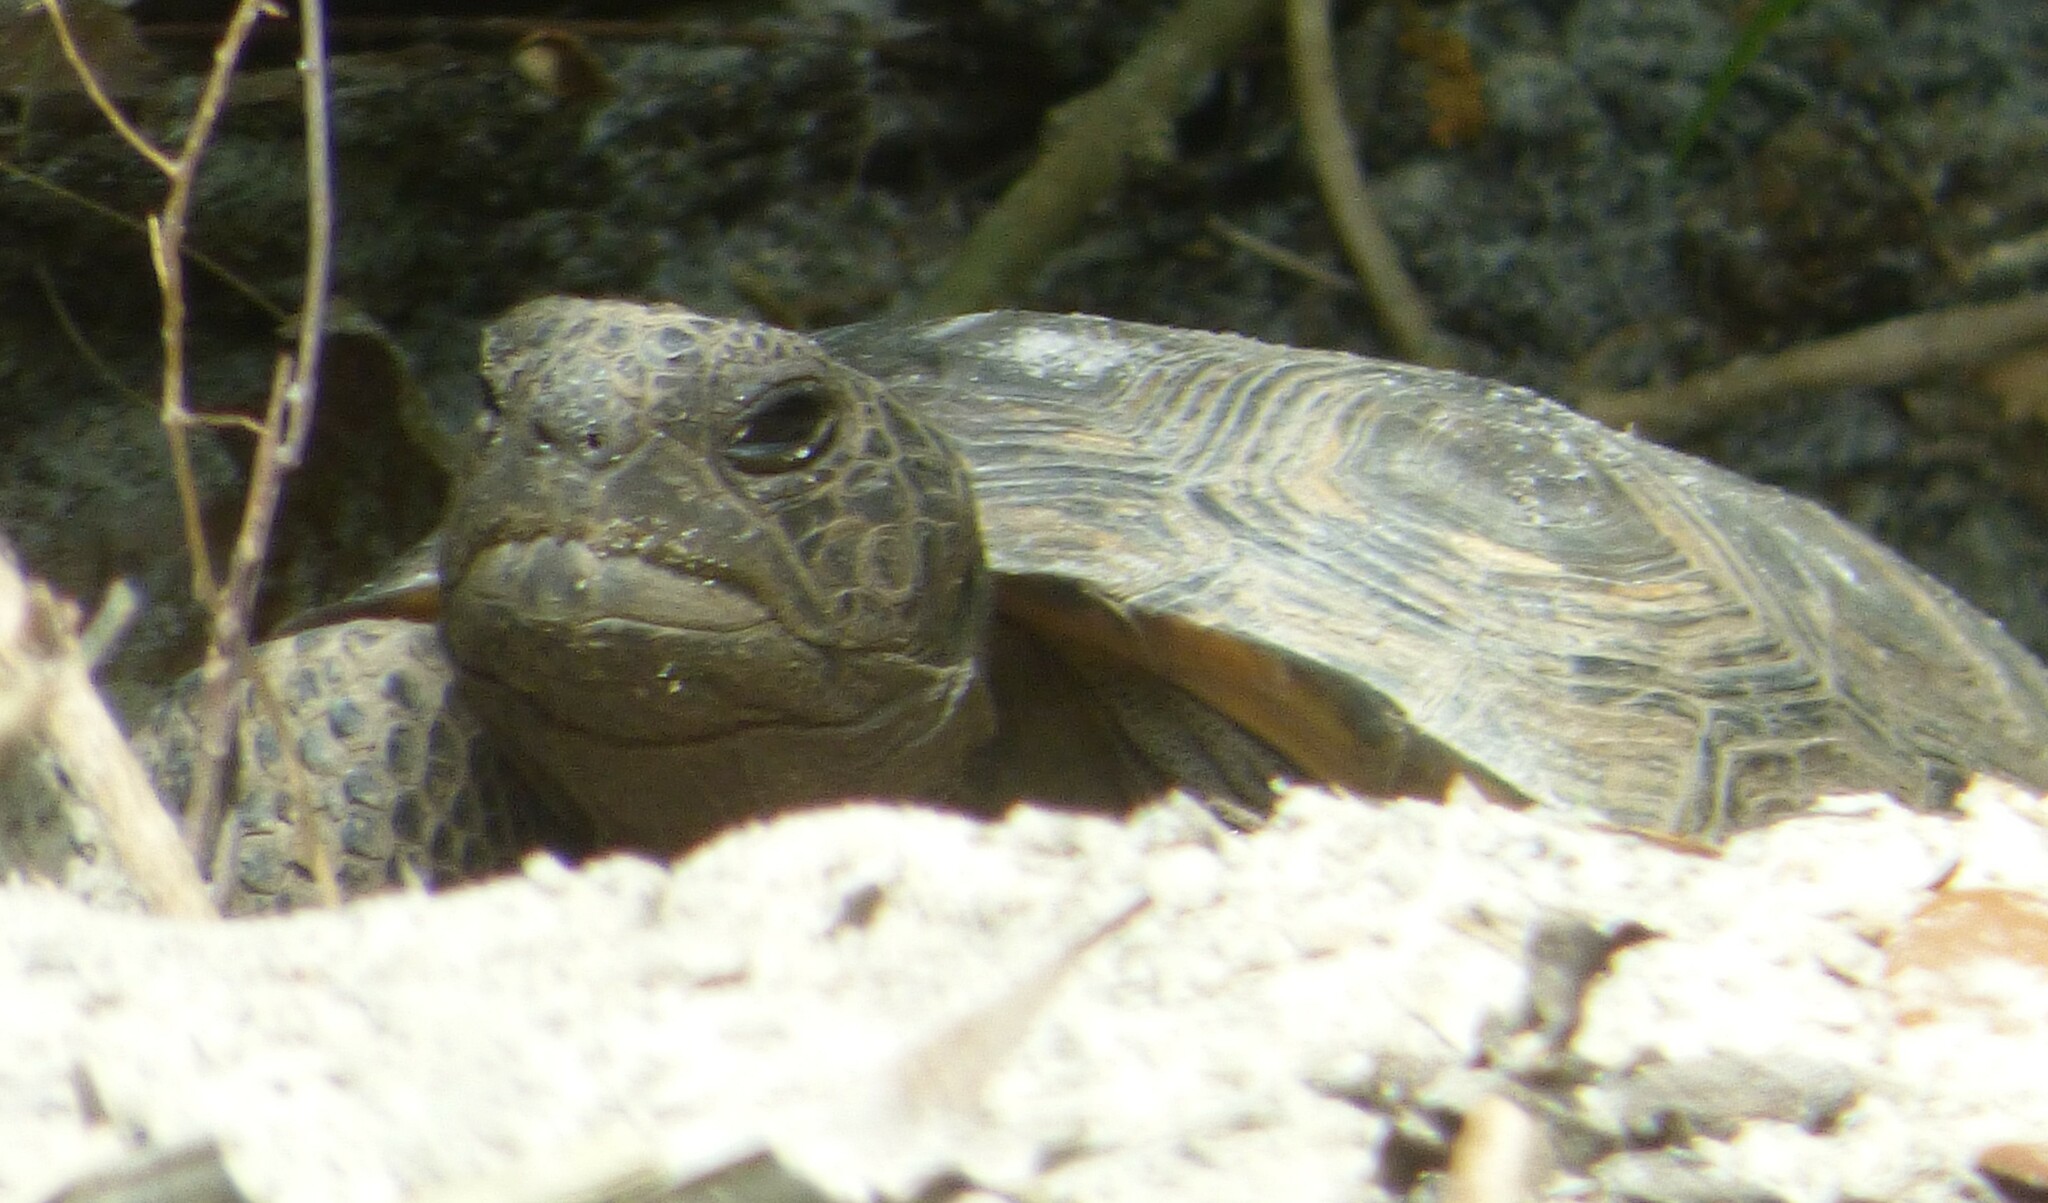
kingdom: Animalia
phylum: Chordata
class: Testudines
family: Testudinidae
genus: Gopherus
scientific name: Gopherus polyphemus
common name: Florida gopher tortoise
